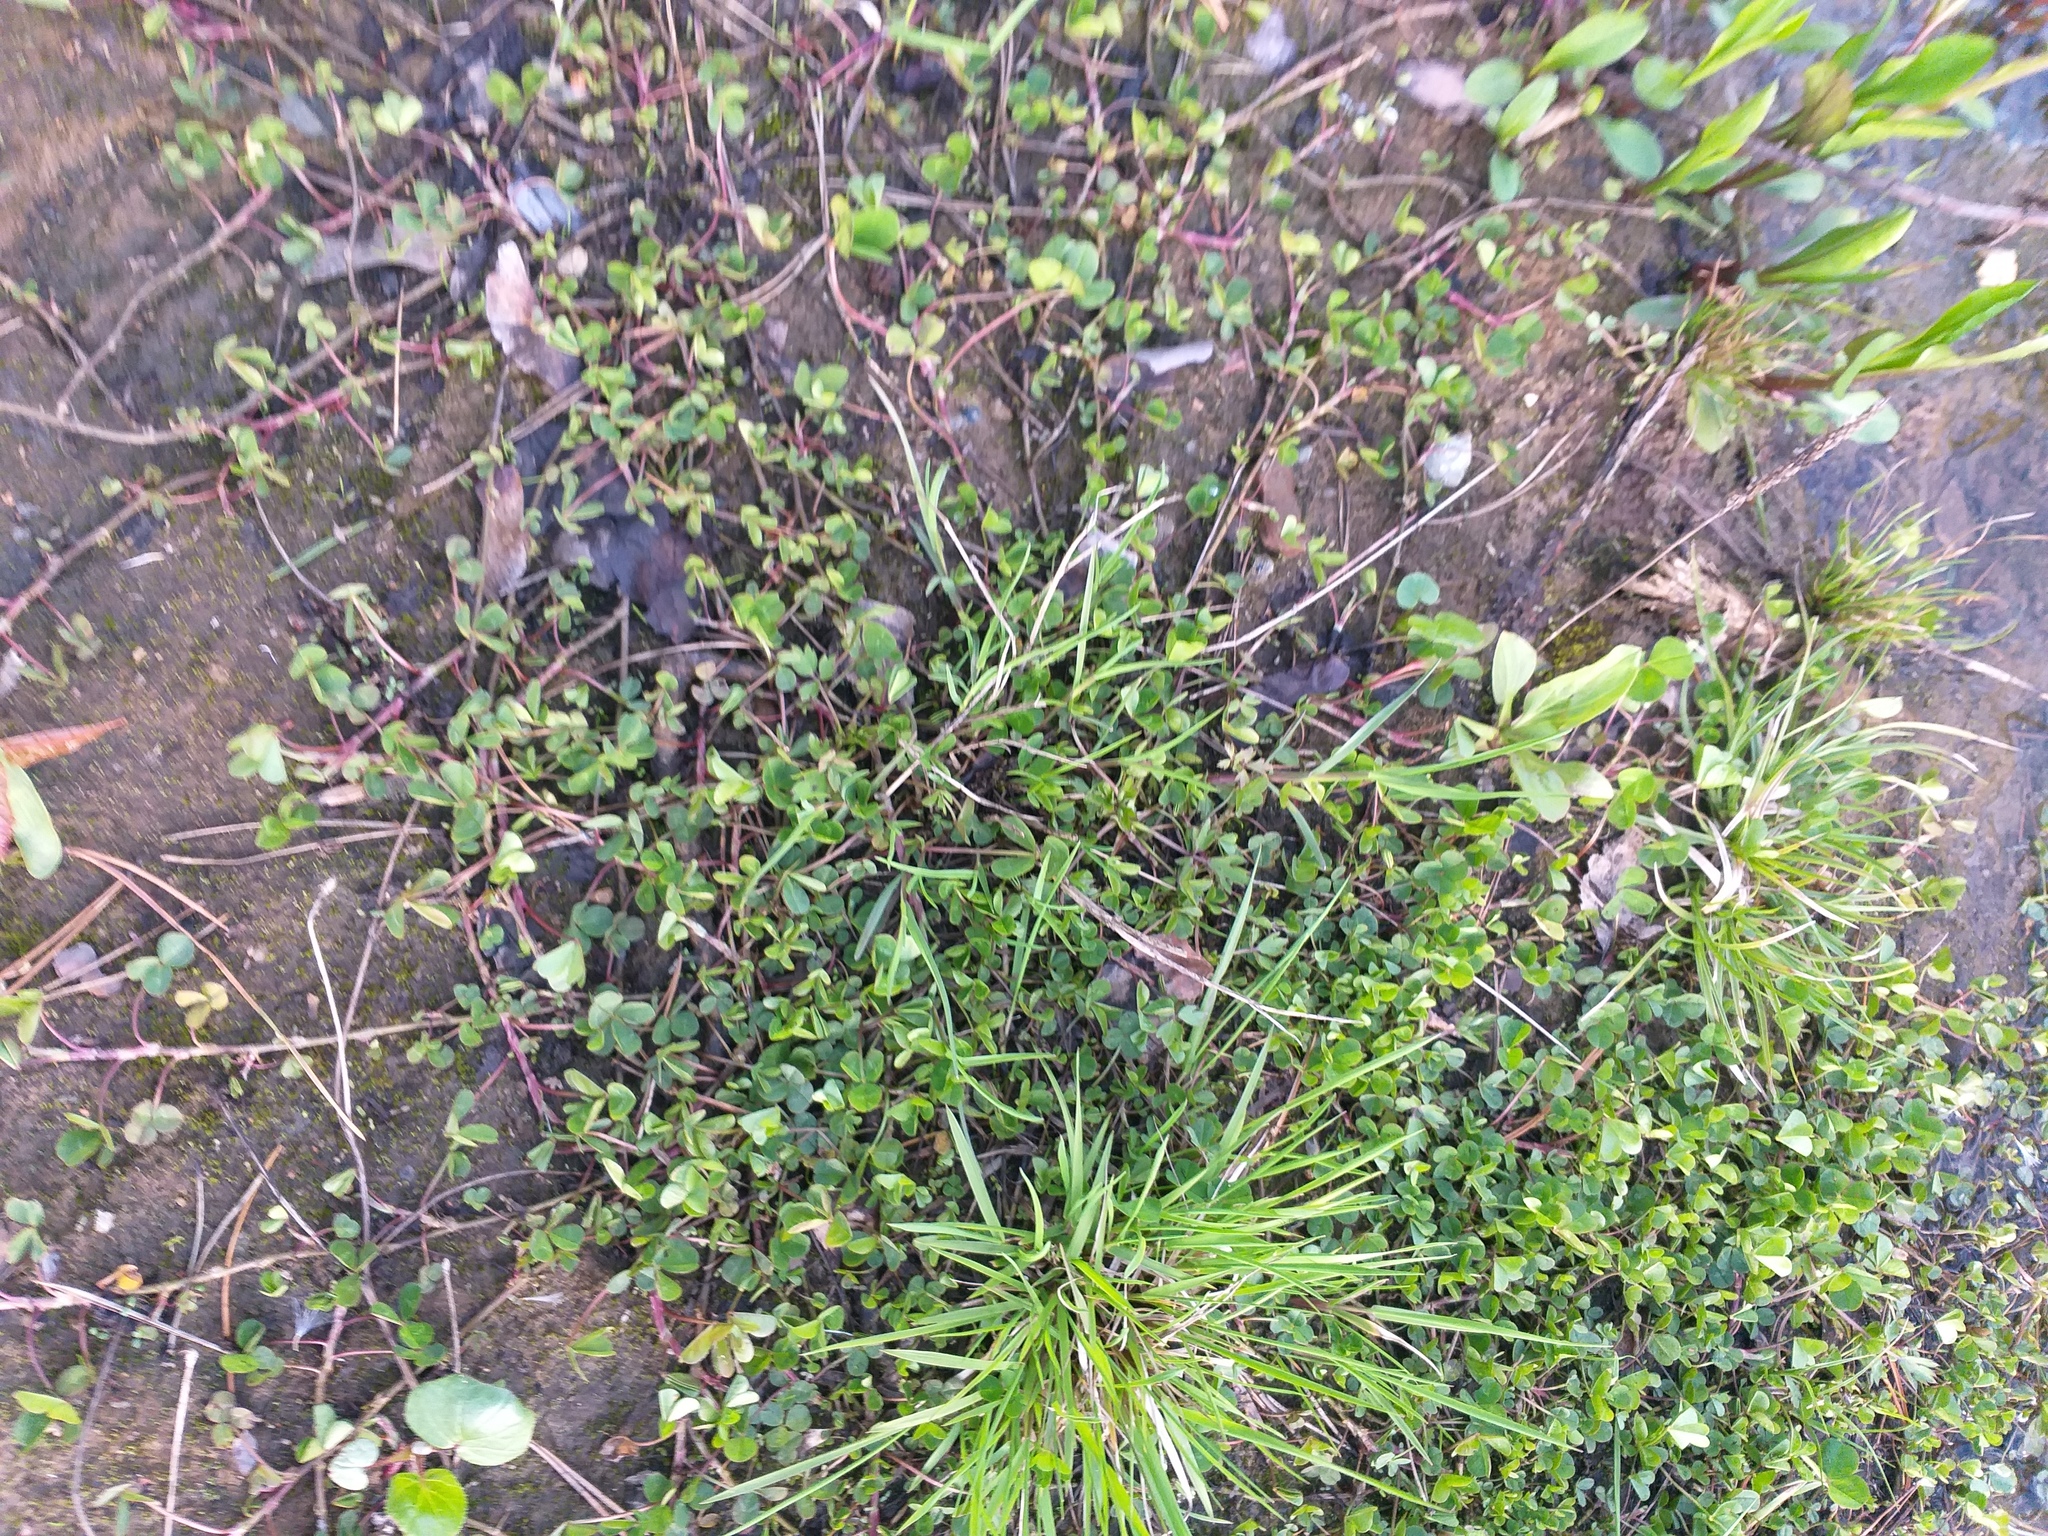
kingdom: Plantae
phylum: Tracheophyta
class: Magnoliopsida
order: Fabales
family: Fabaceae
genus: Trifolium
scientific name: Trifolium repens
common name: White clover
